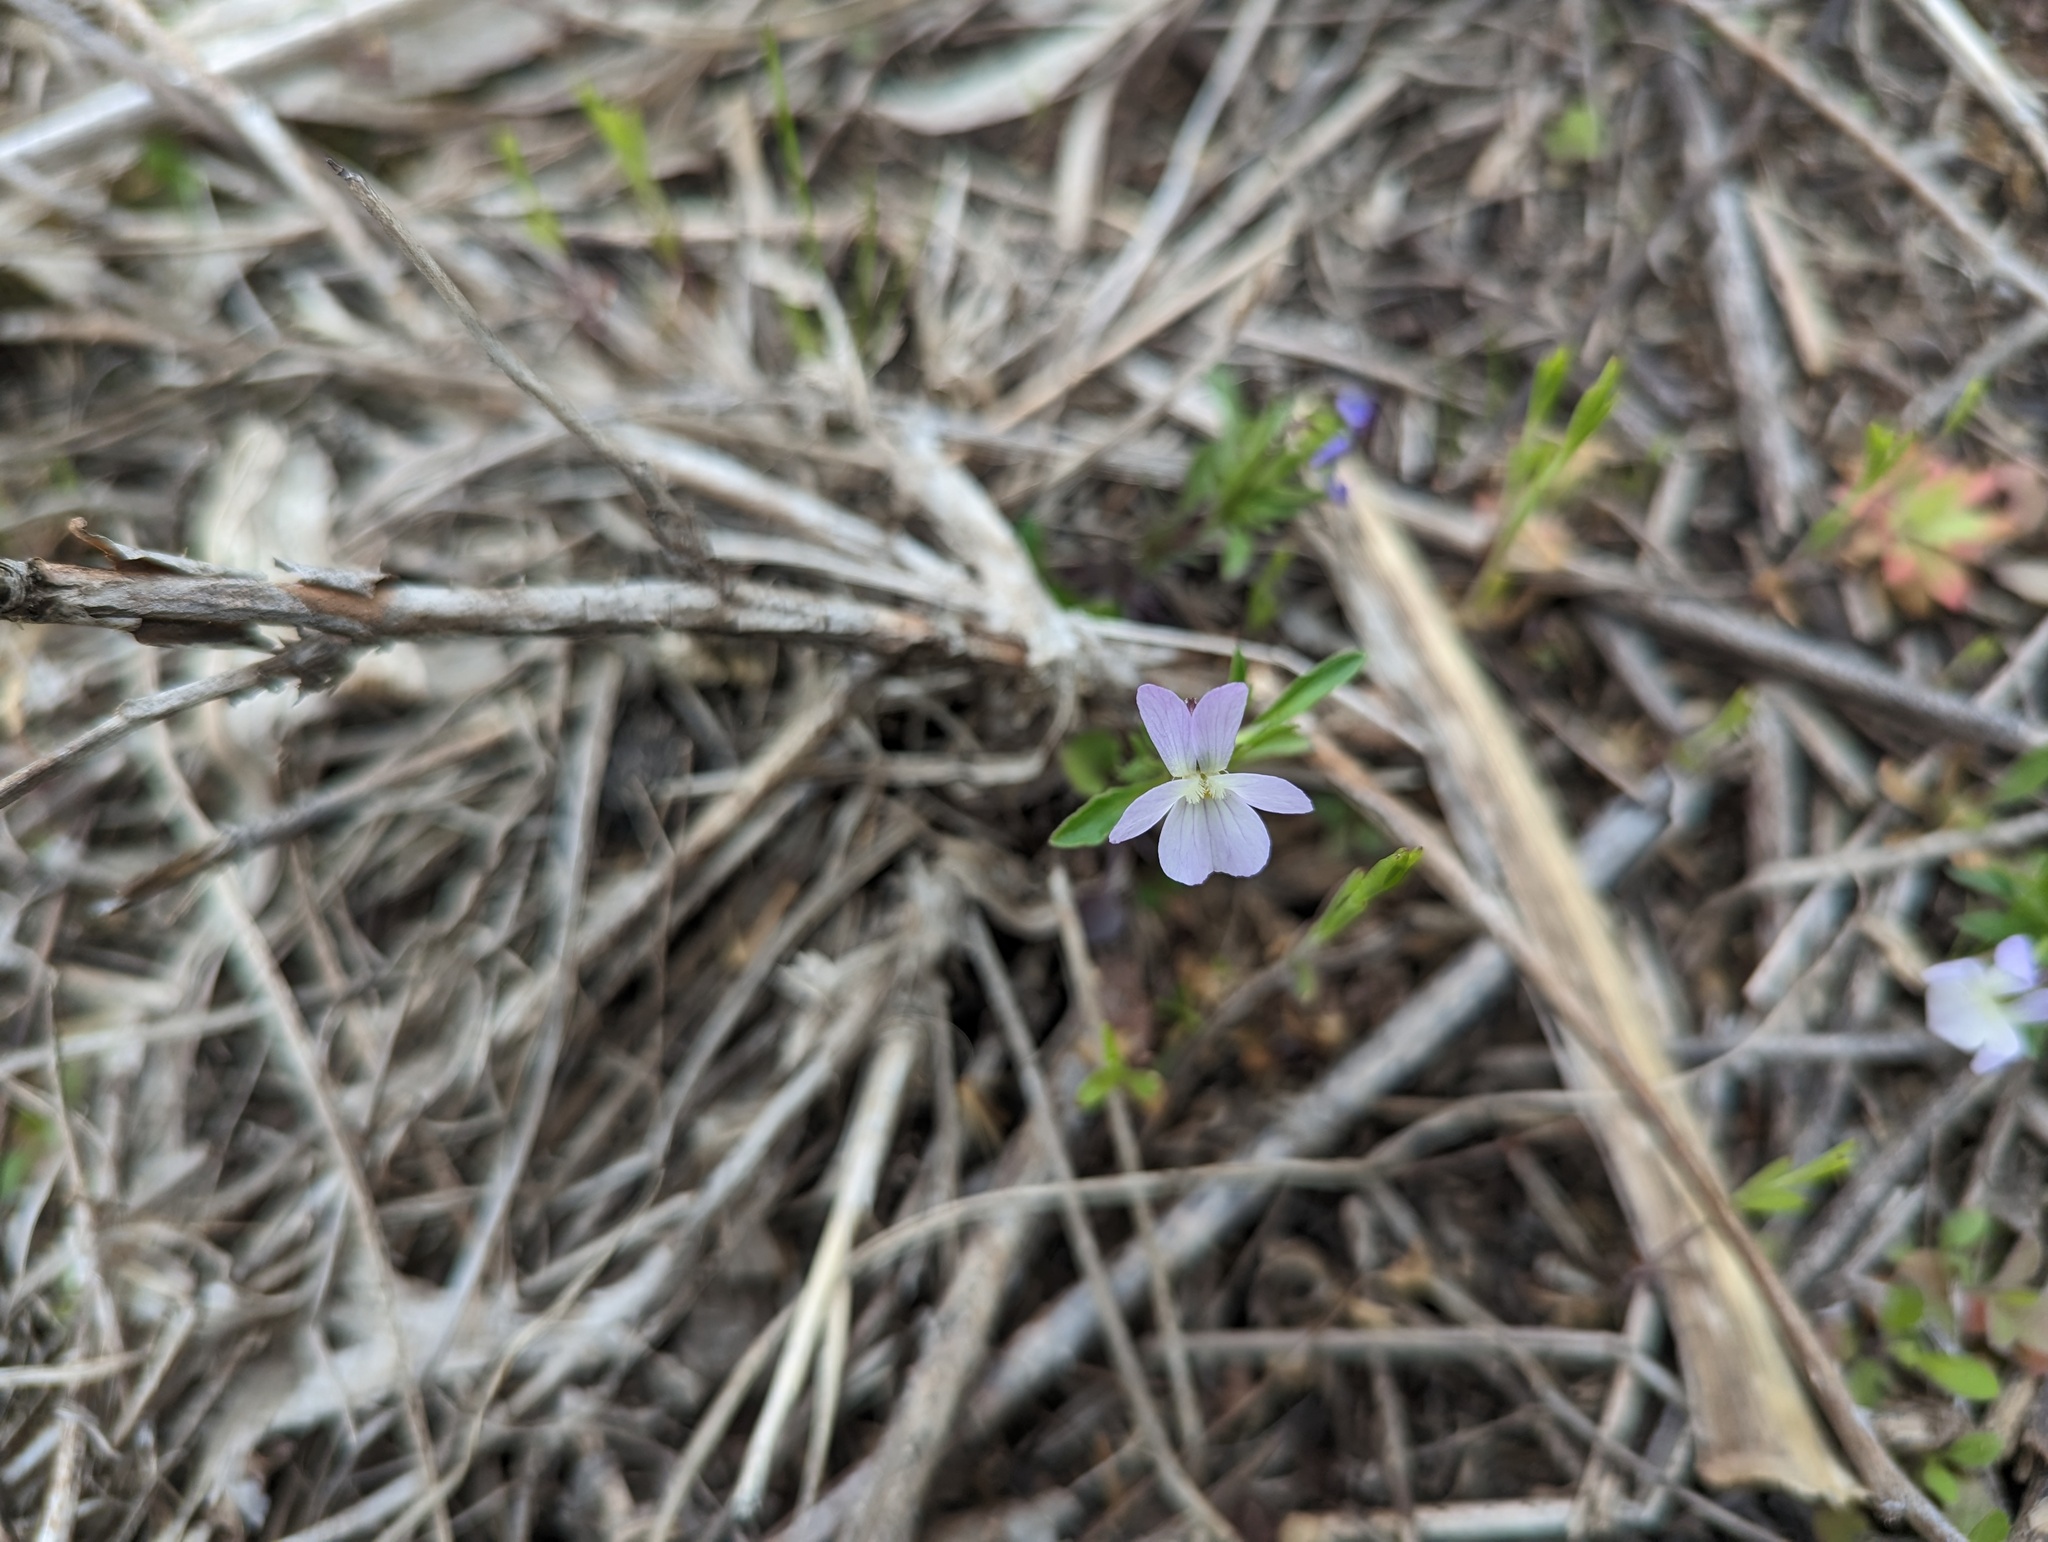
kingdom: Plantae
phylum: Tracheophyta
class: Magnoliopsida
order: Malpighiales
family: Violaceae
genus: Viola
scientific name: Viola rafinesquei
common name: American field pansy
